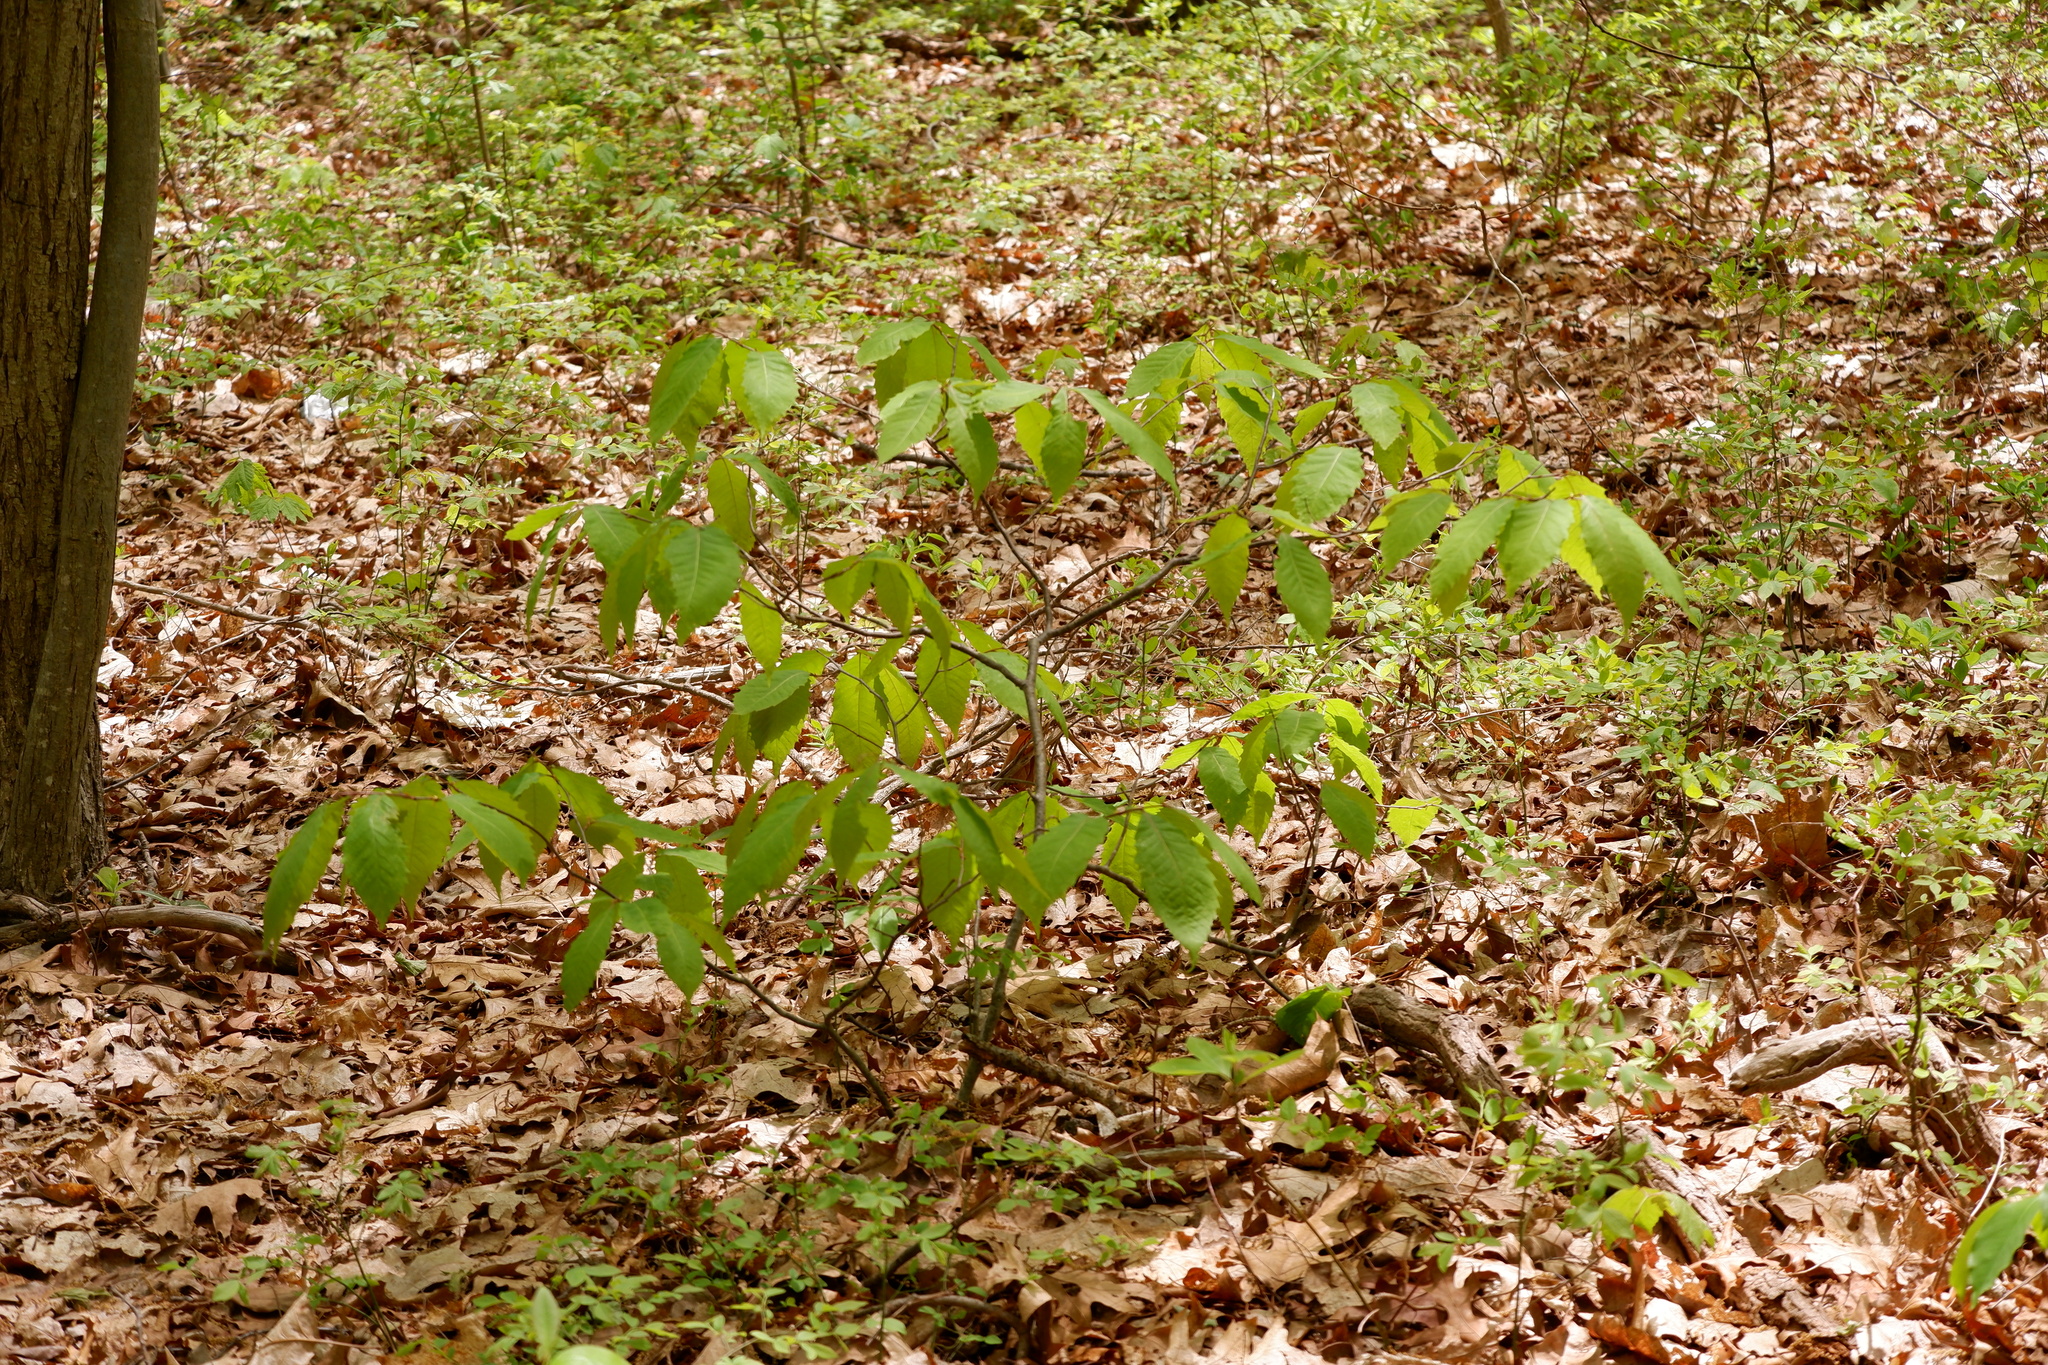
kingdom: Plantae
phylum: Tracheophyta
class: Magnoliopsida
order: Fagales
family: Fagaceae
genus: Castanea
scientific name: Castanea dentata
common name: American chestnut
